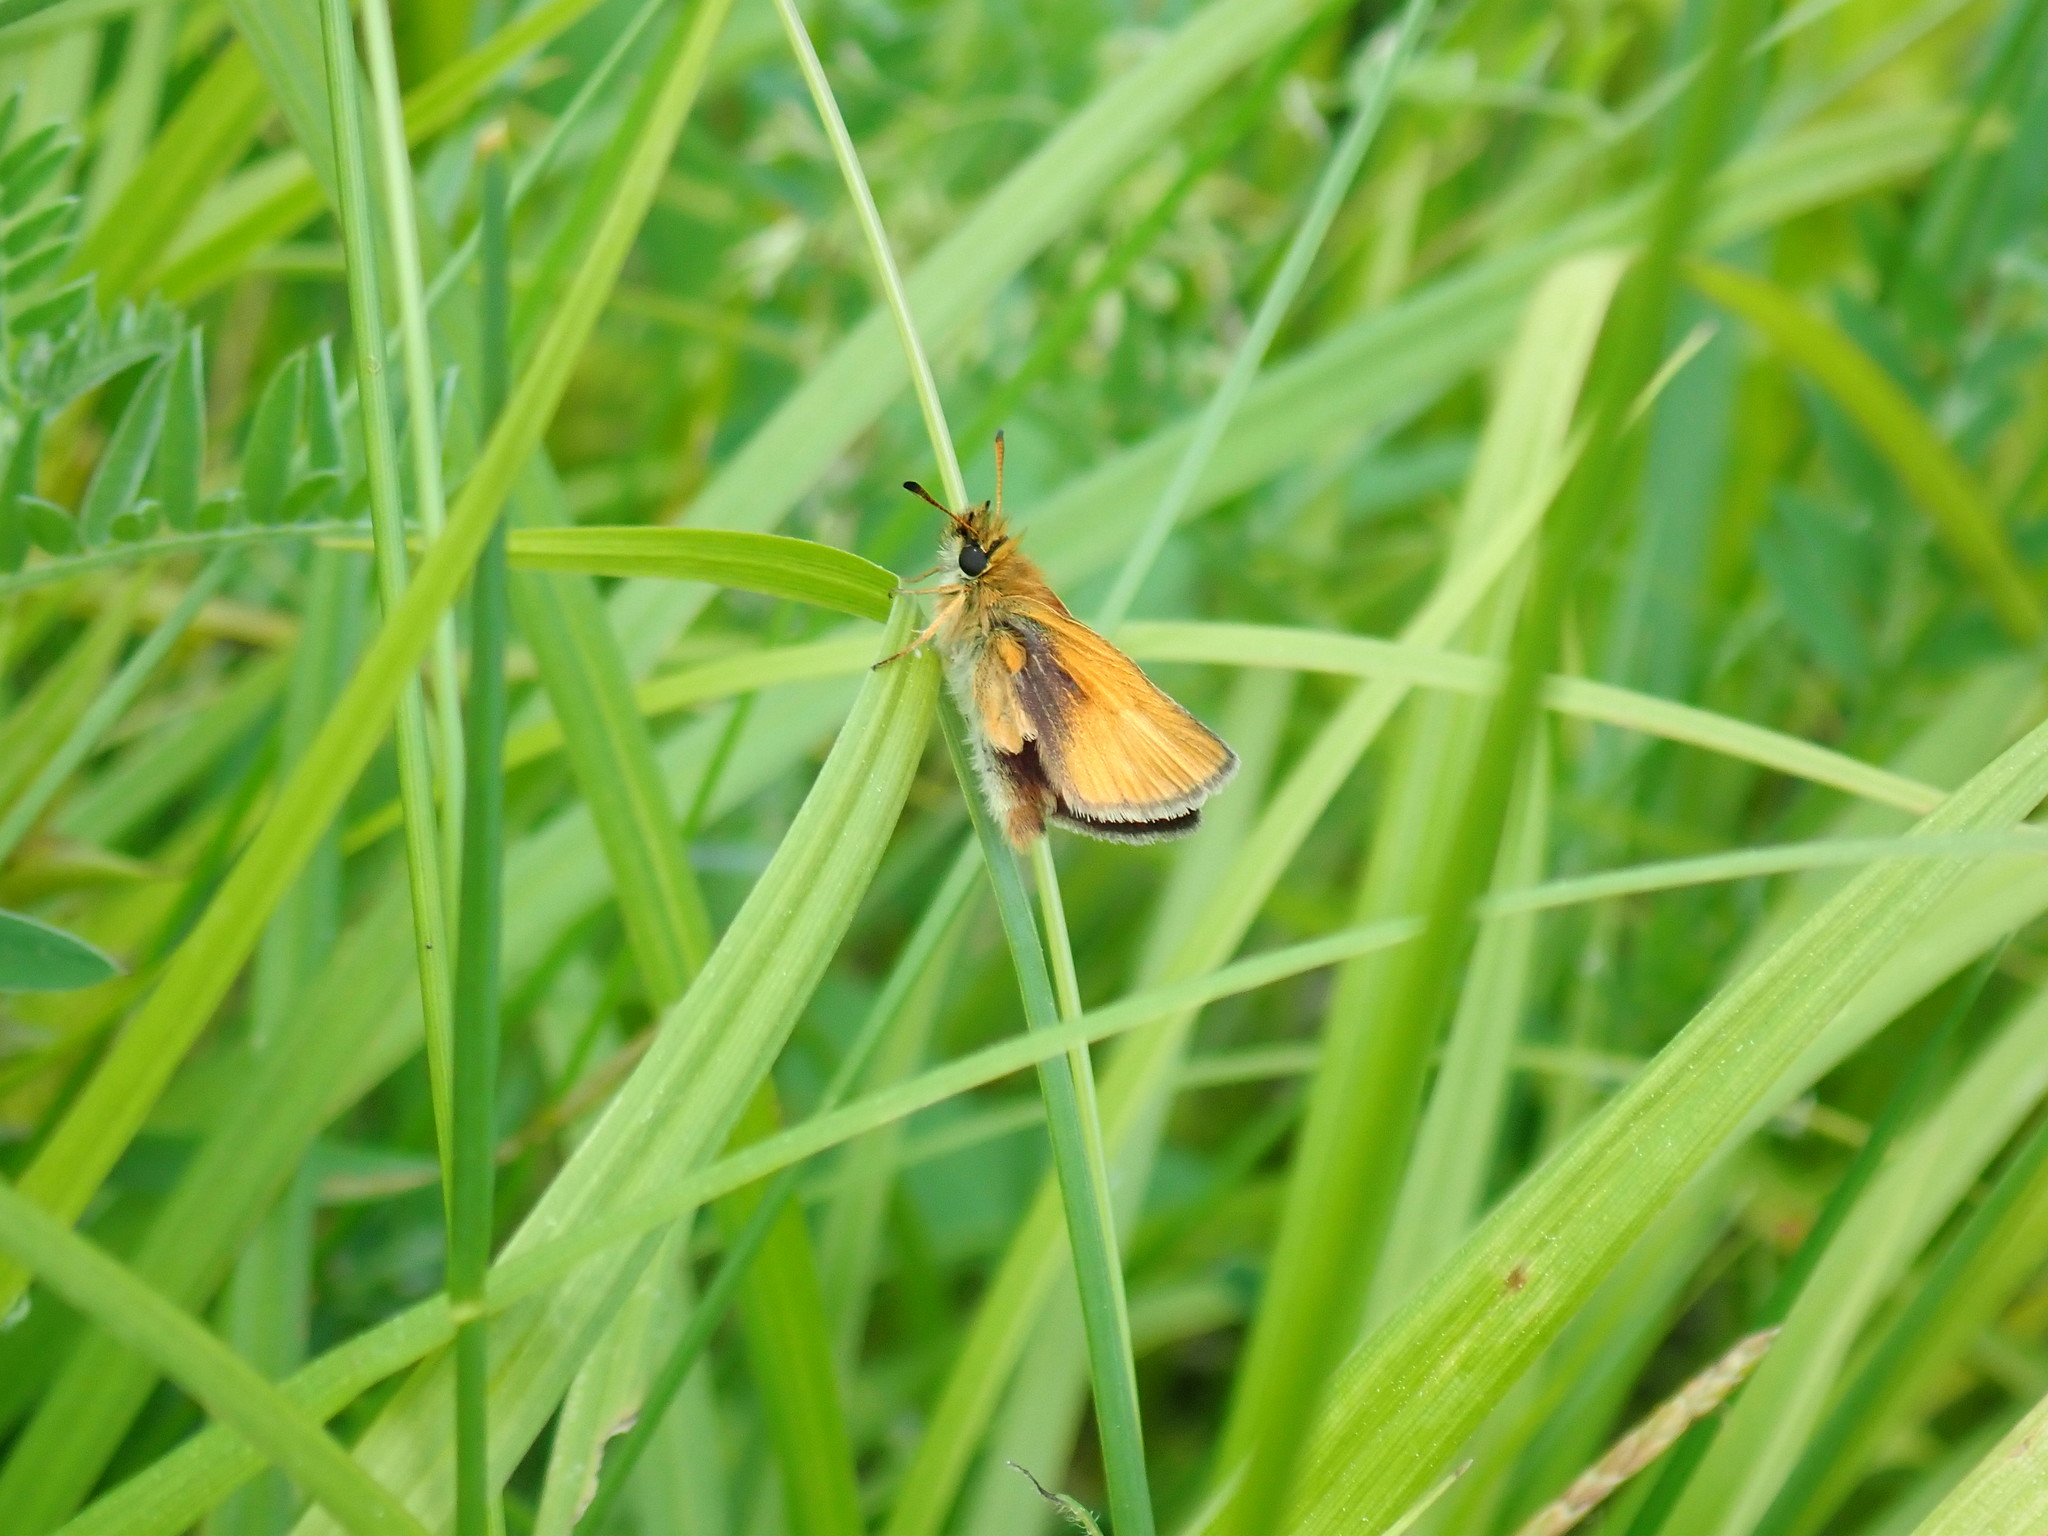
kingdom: Animalia
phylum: Arthropoda
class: Insecta
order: Lepidoptera
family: Hesperiidae
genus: Thymelicus
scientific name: Thymelicus lineola
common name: Essex skipper
